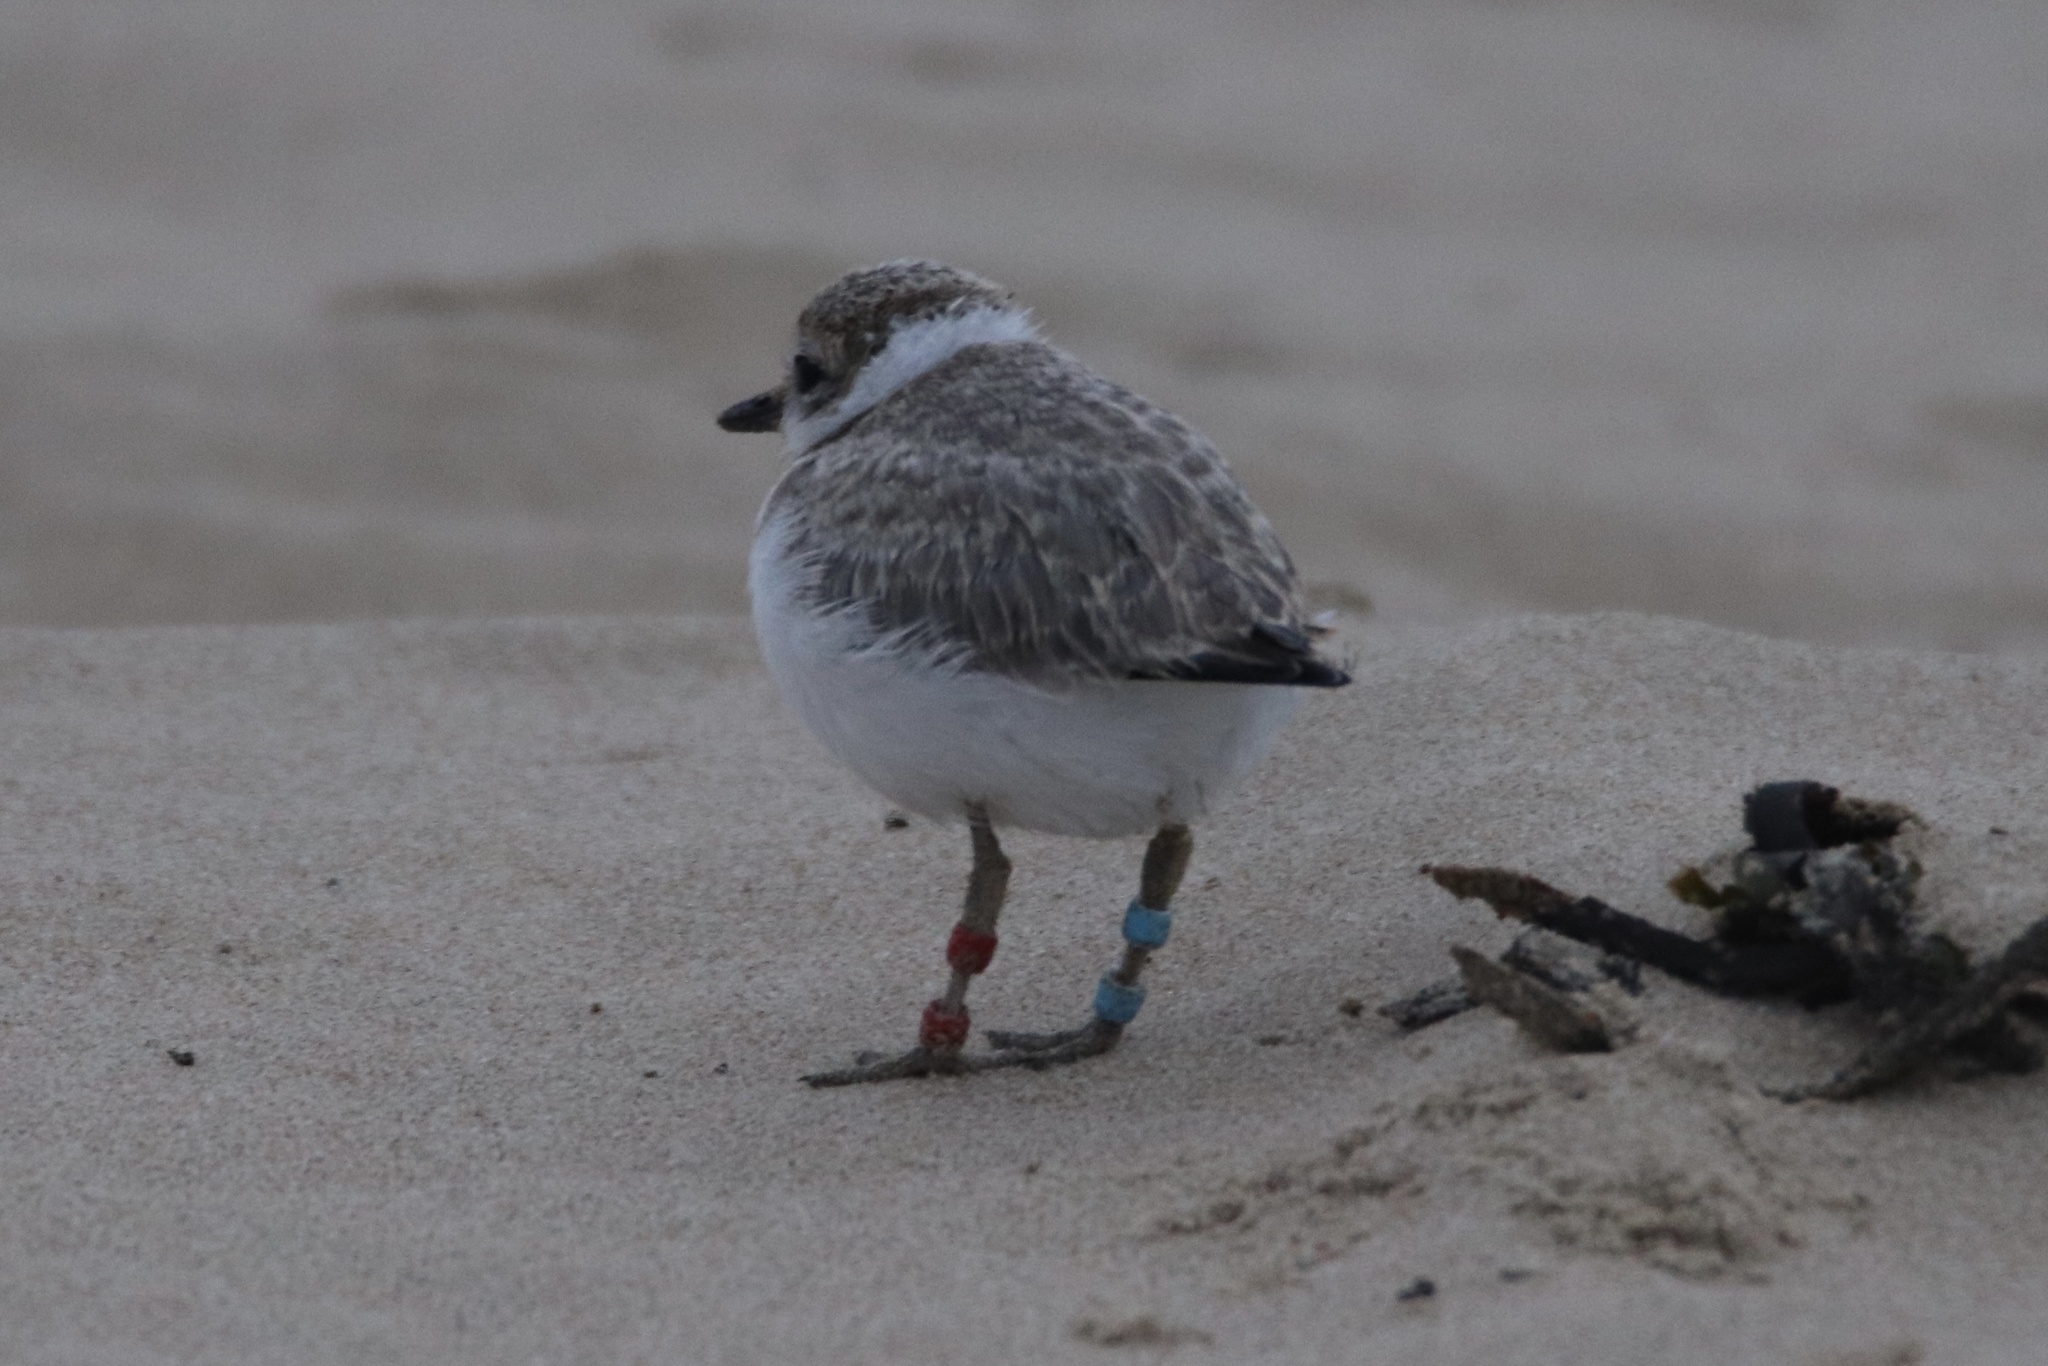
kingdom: Animalia
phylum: Chordata
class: Aves
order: Charadriiformes
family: Charadriidae
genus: Anarhynchus
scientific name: Anarhynchus
